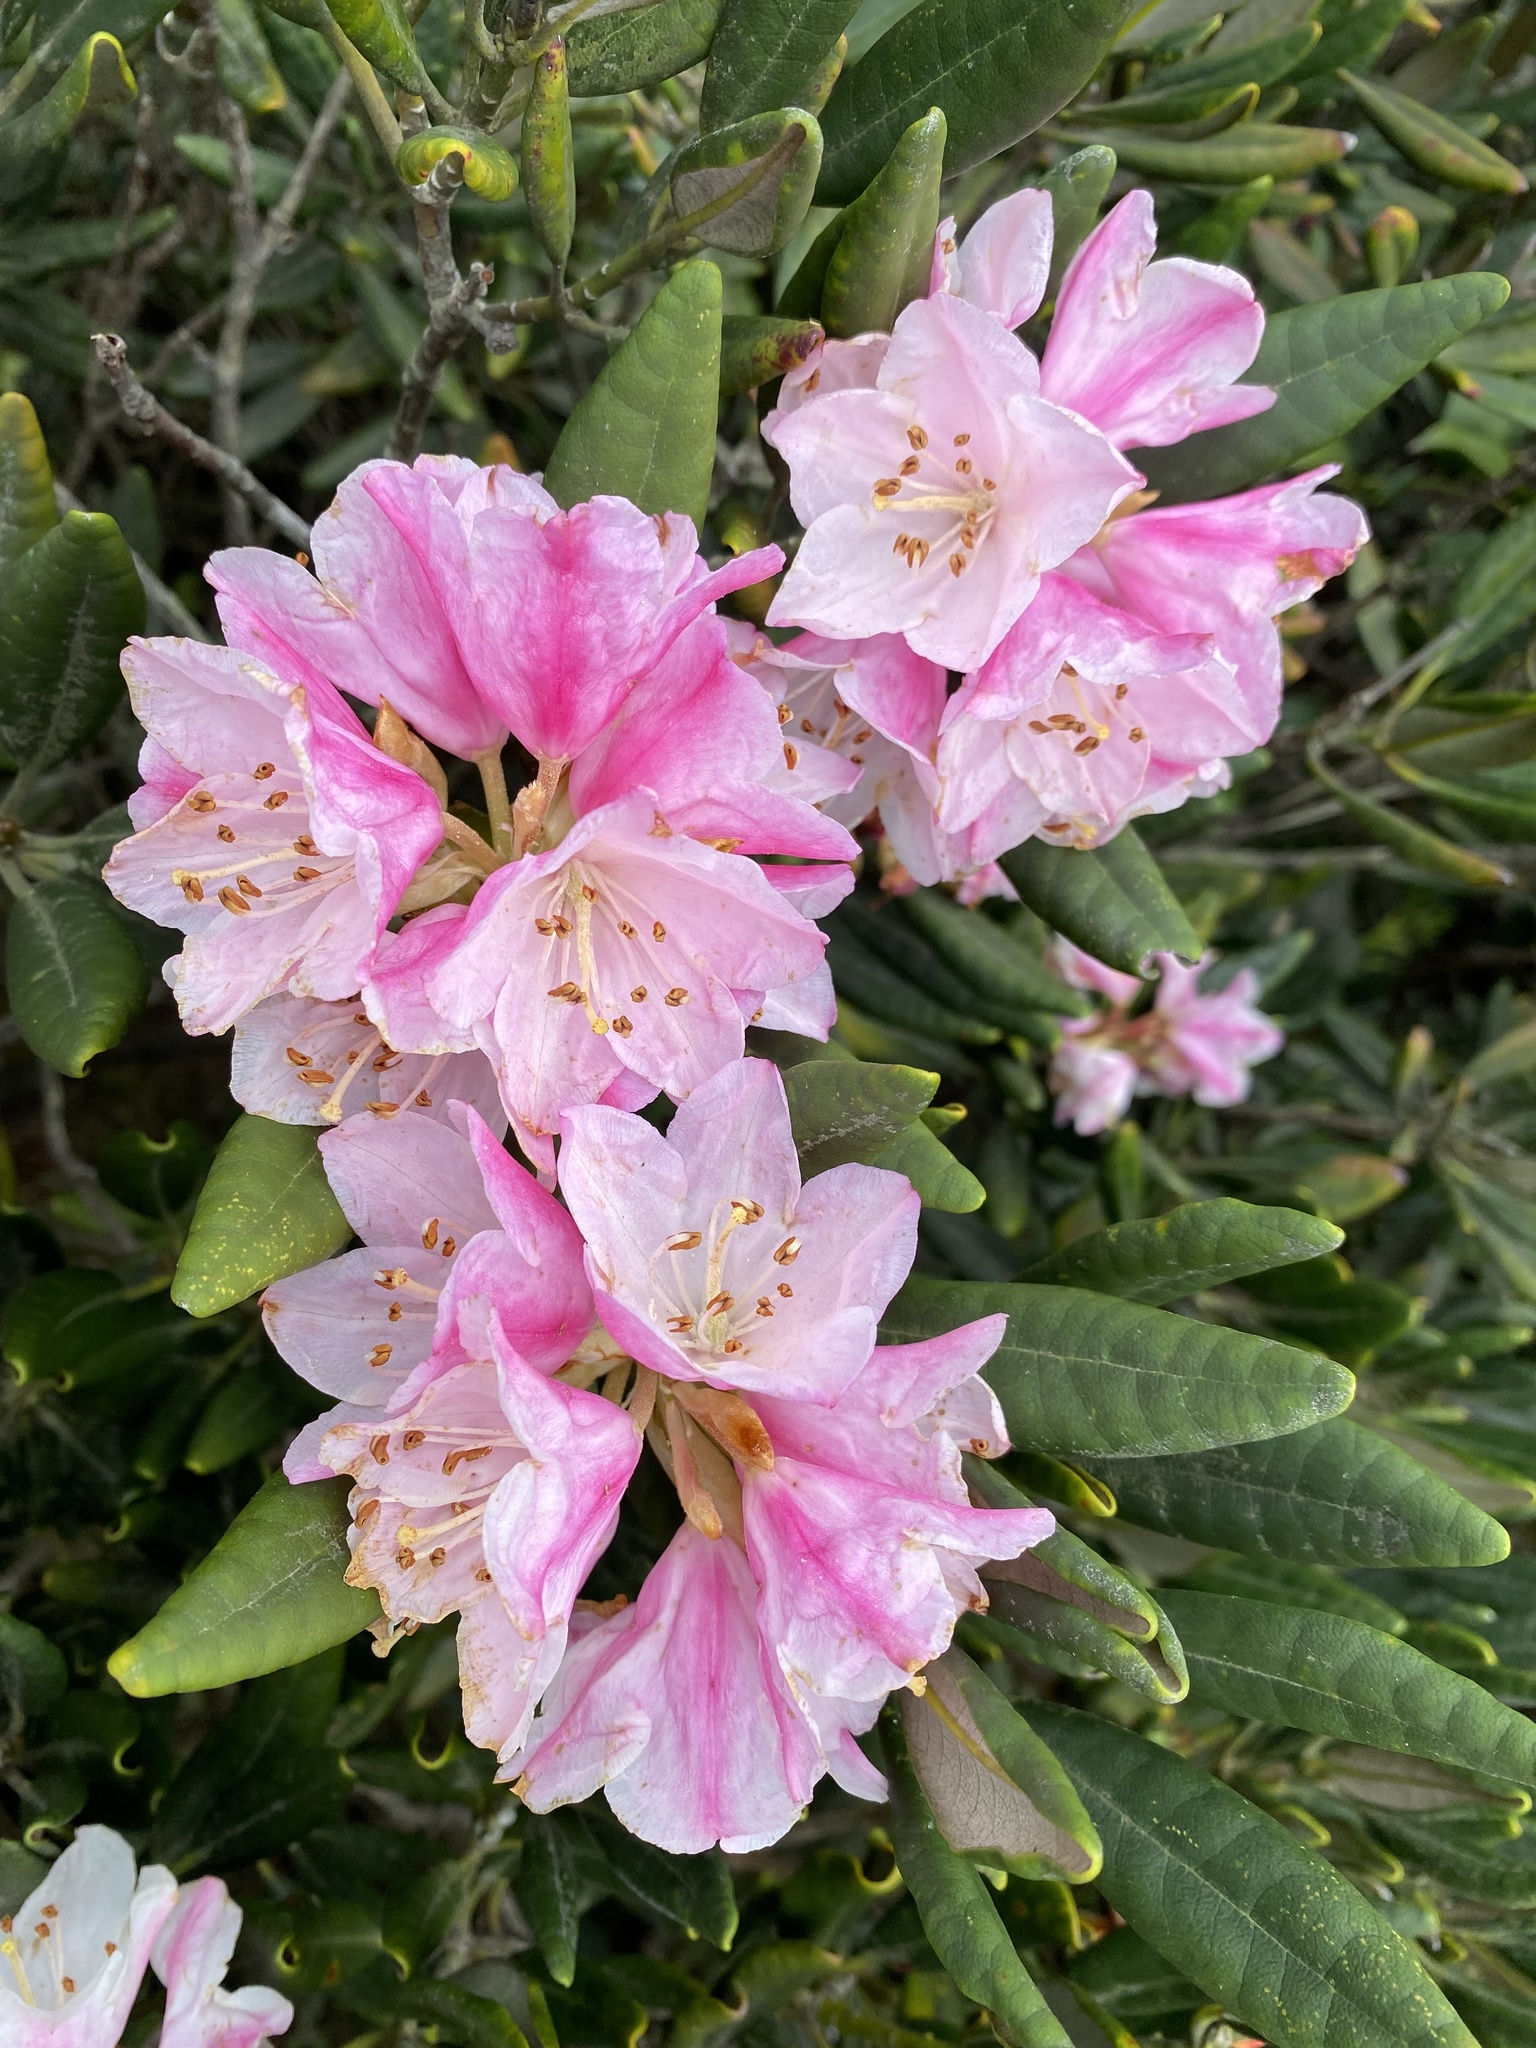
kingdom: Plantae
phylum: Tracheophyta
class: Magnoliopsida
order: Ericales
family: Ericaceae
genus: Rhododendron
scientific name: Rhododendron simiarum
